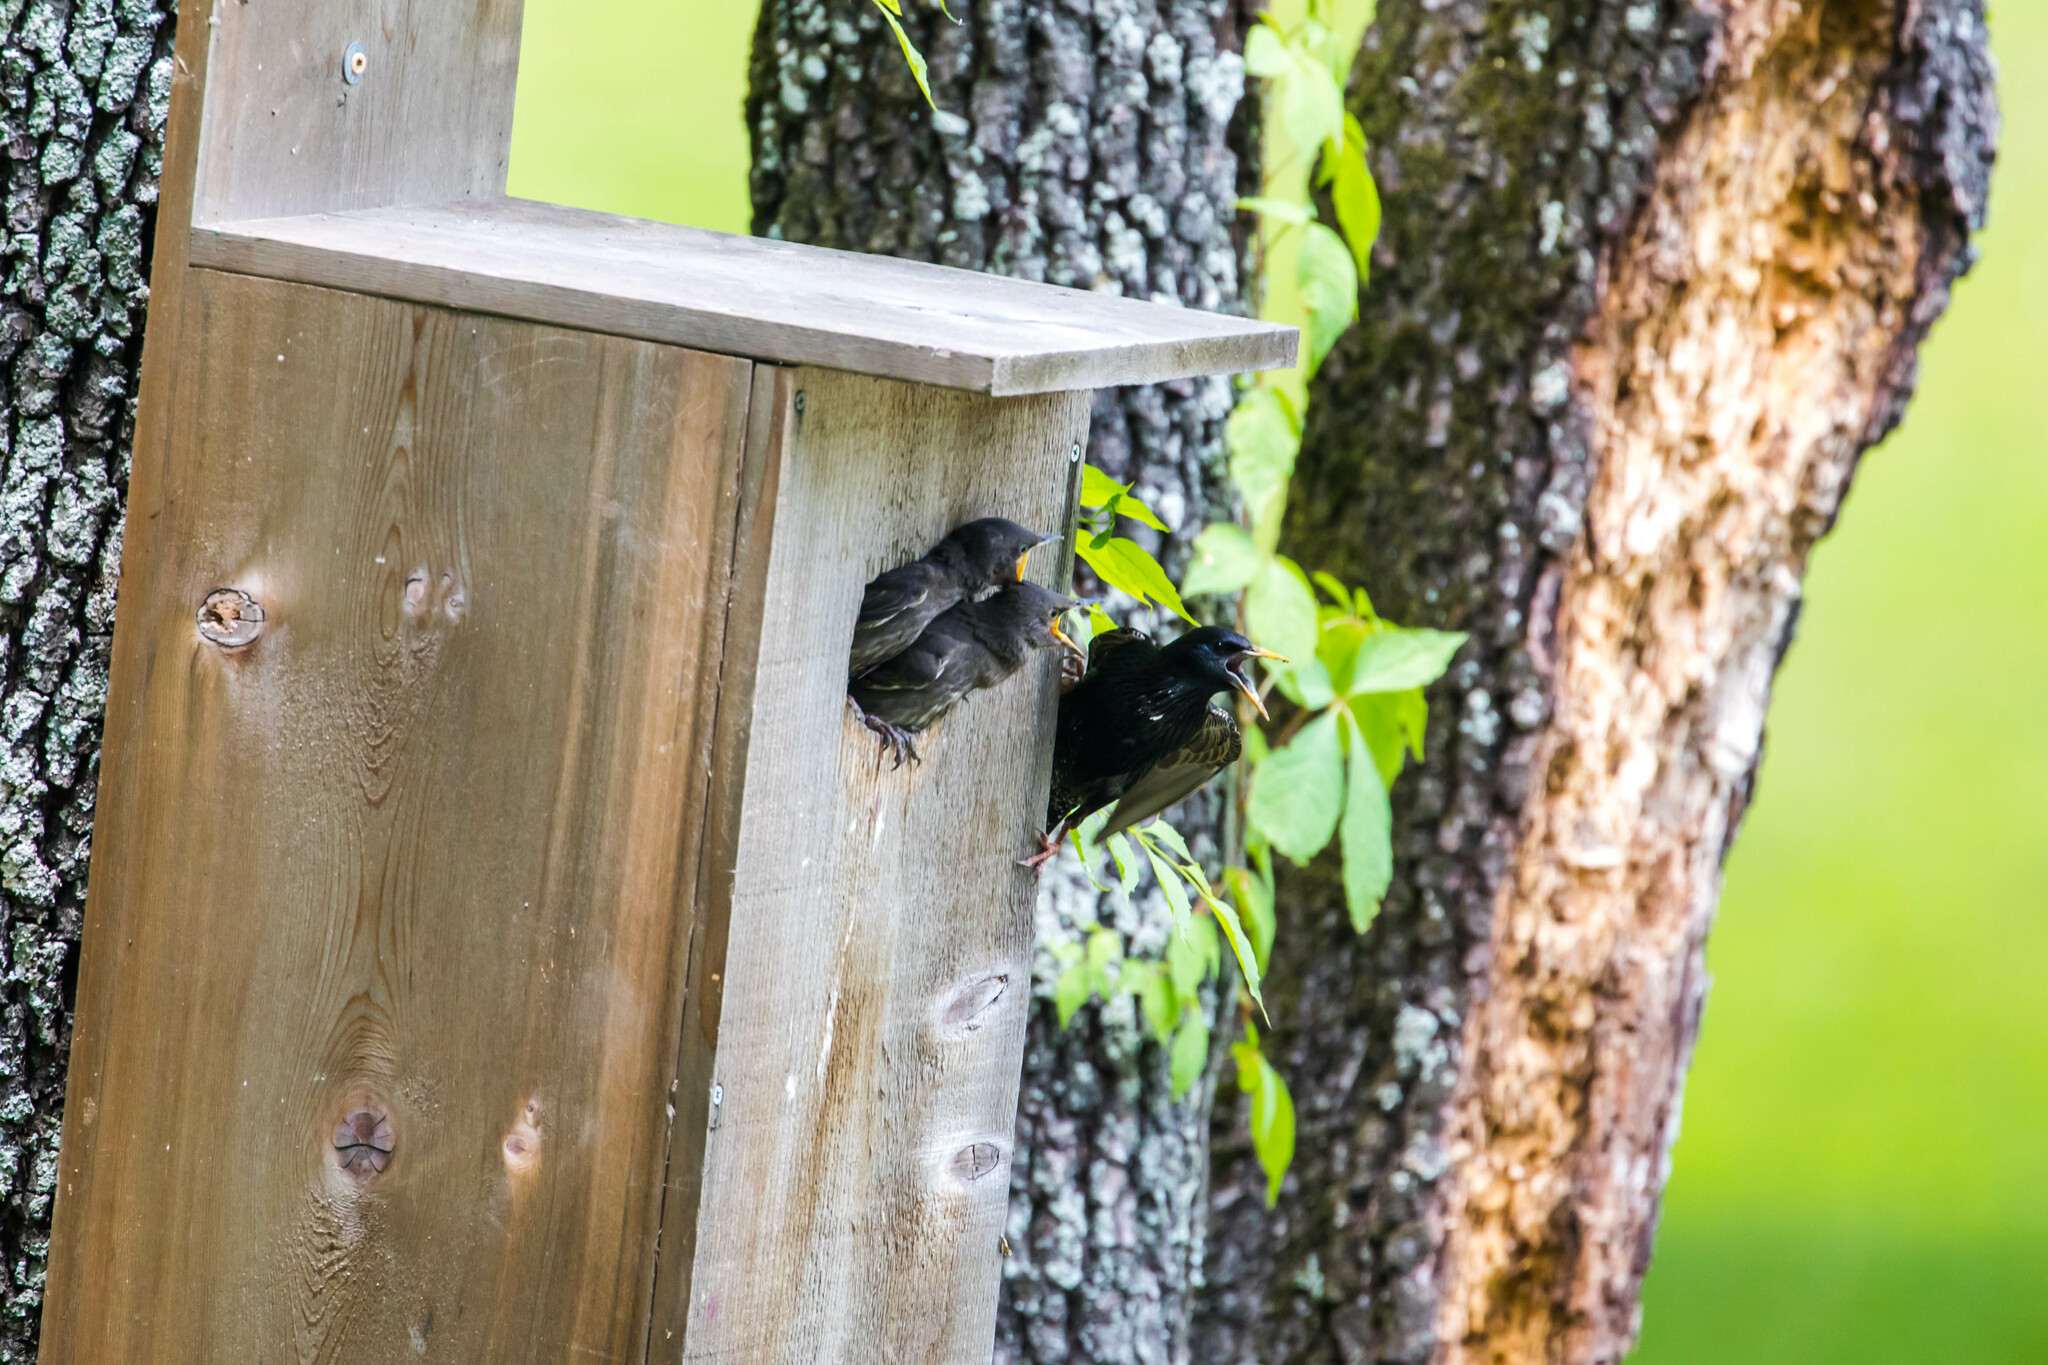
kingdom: Animalia
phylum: Chordata
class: Aves
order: Passeriformes
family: Sturnidae
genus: Sturnus
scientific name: Sturnus vulgaris
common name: Common starling
